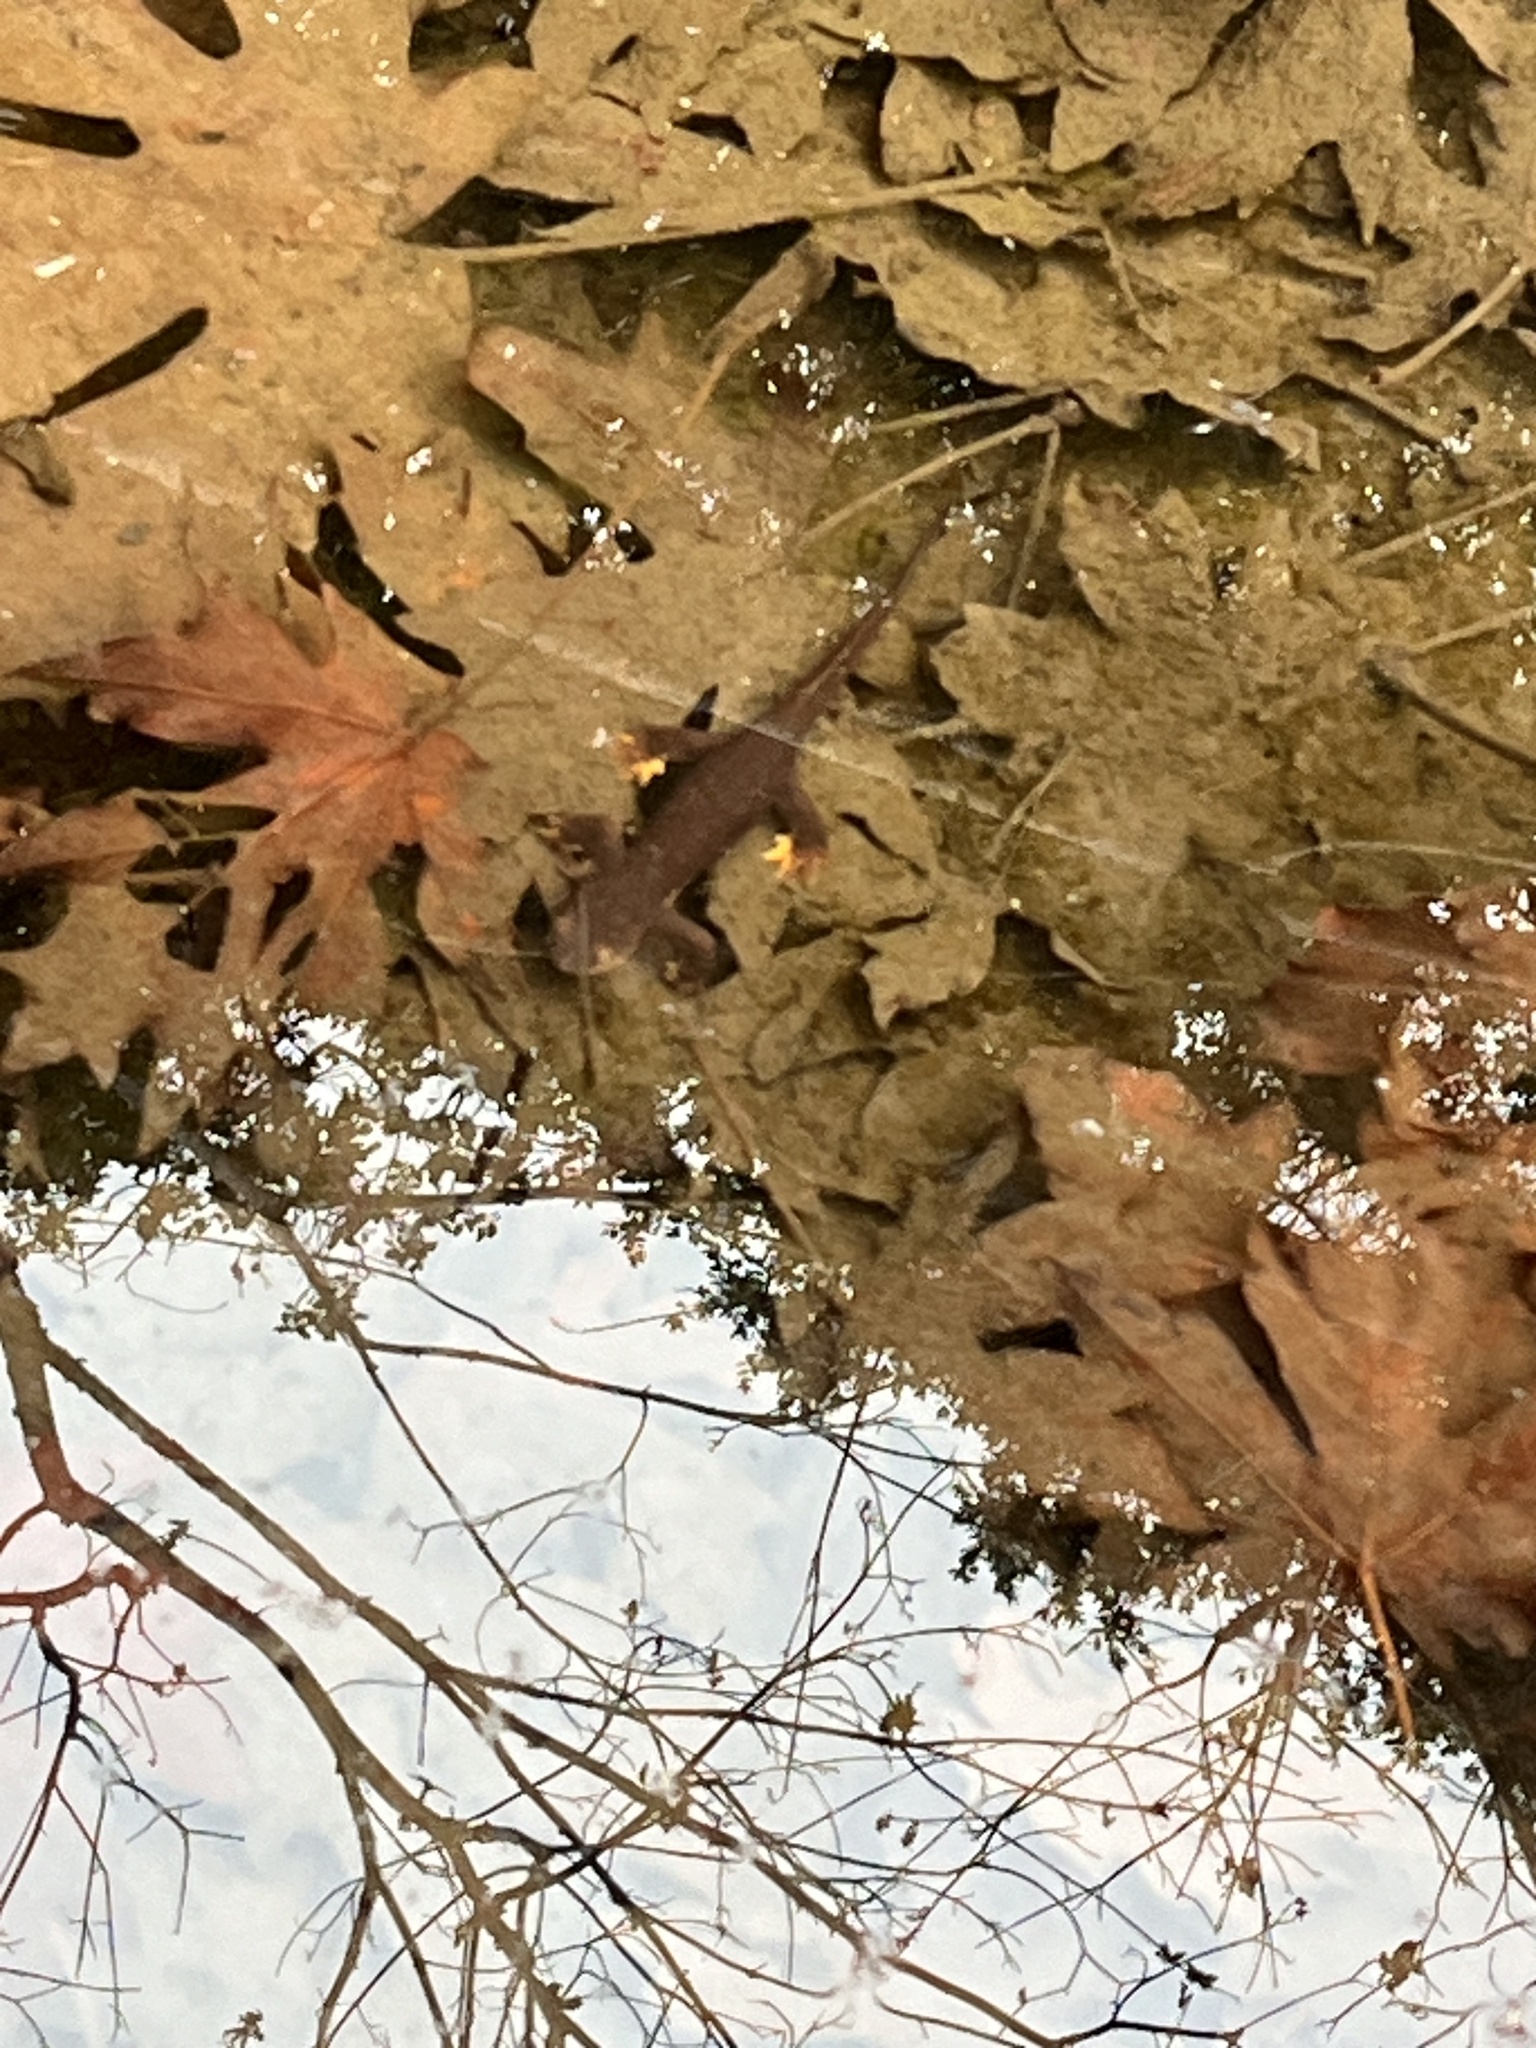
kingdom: Animalia
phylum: Chordata
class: Amphibia
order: Caudata
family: Salamandridae
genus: Taricha
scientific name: Taricha torosa
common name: California newt
